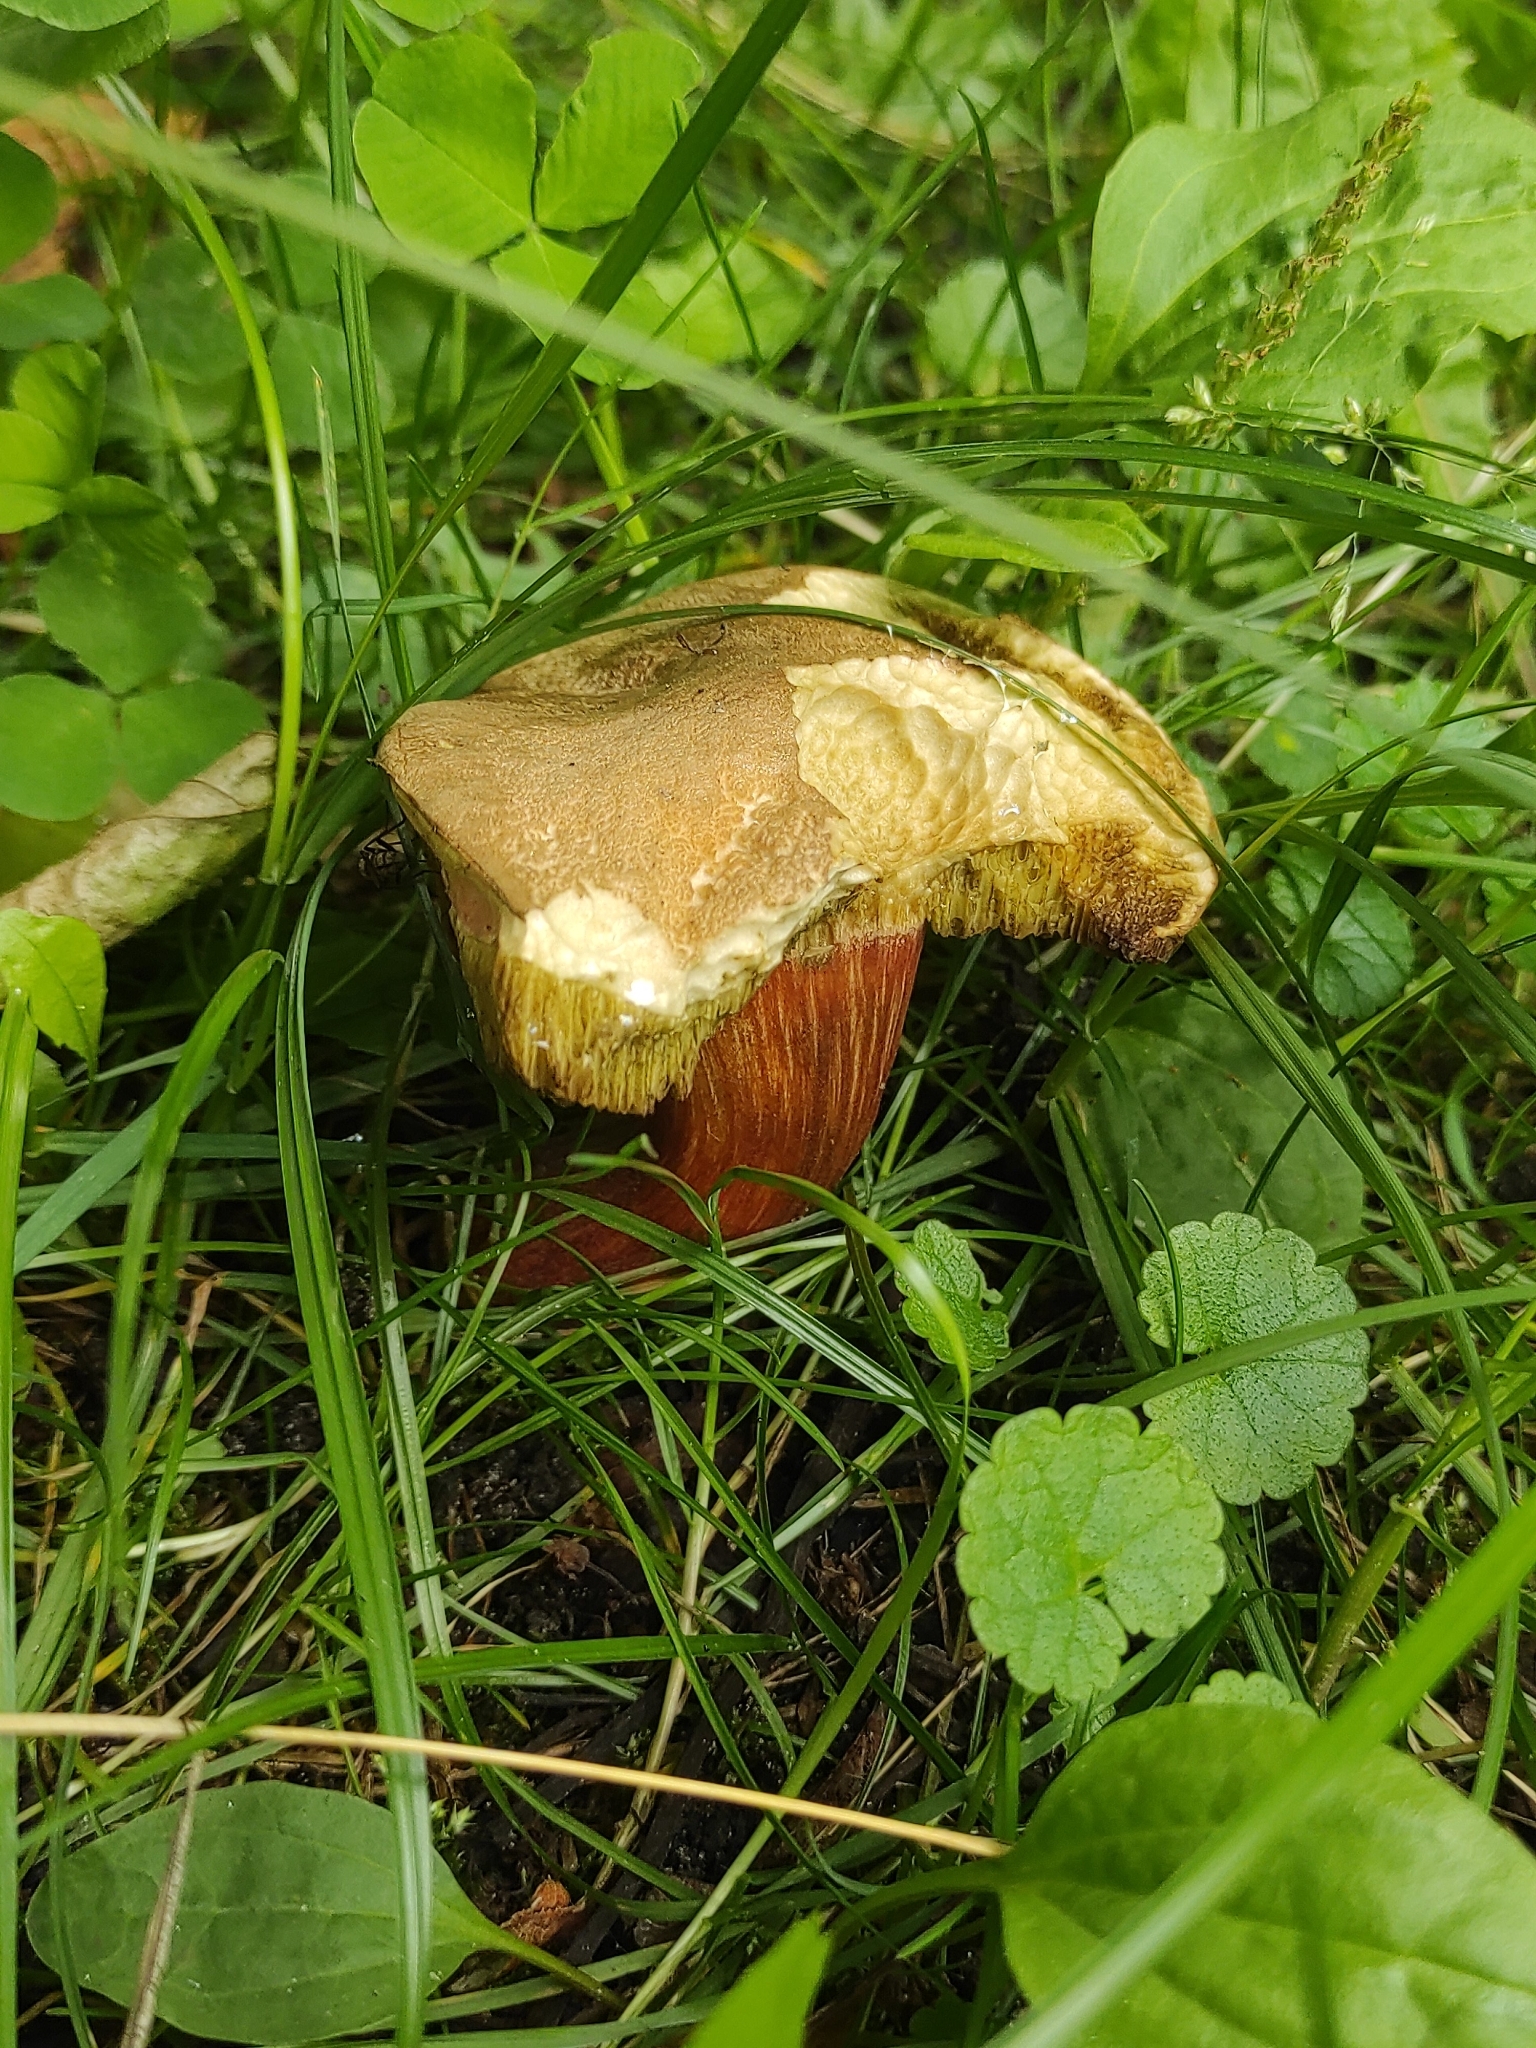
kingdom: Fungi
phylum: Basidiomycota
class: Agaricomycetes
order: Boletales
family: Boletaceae
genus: Xerocomellus
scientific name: Xerocomellus chrysenteron
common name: Red-cracking bolete
